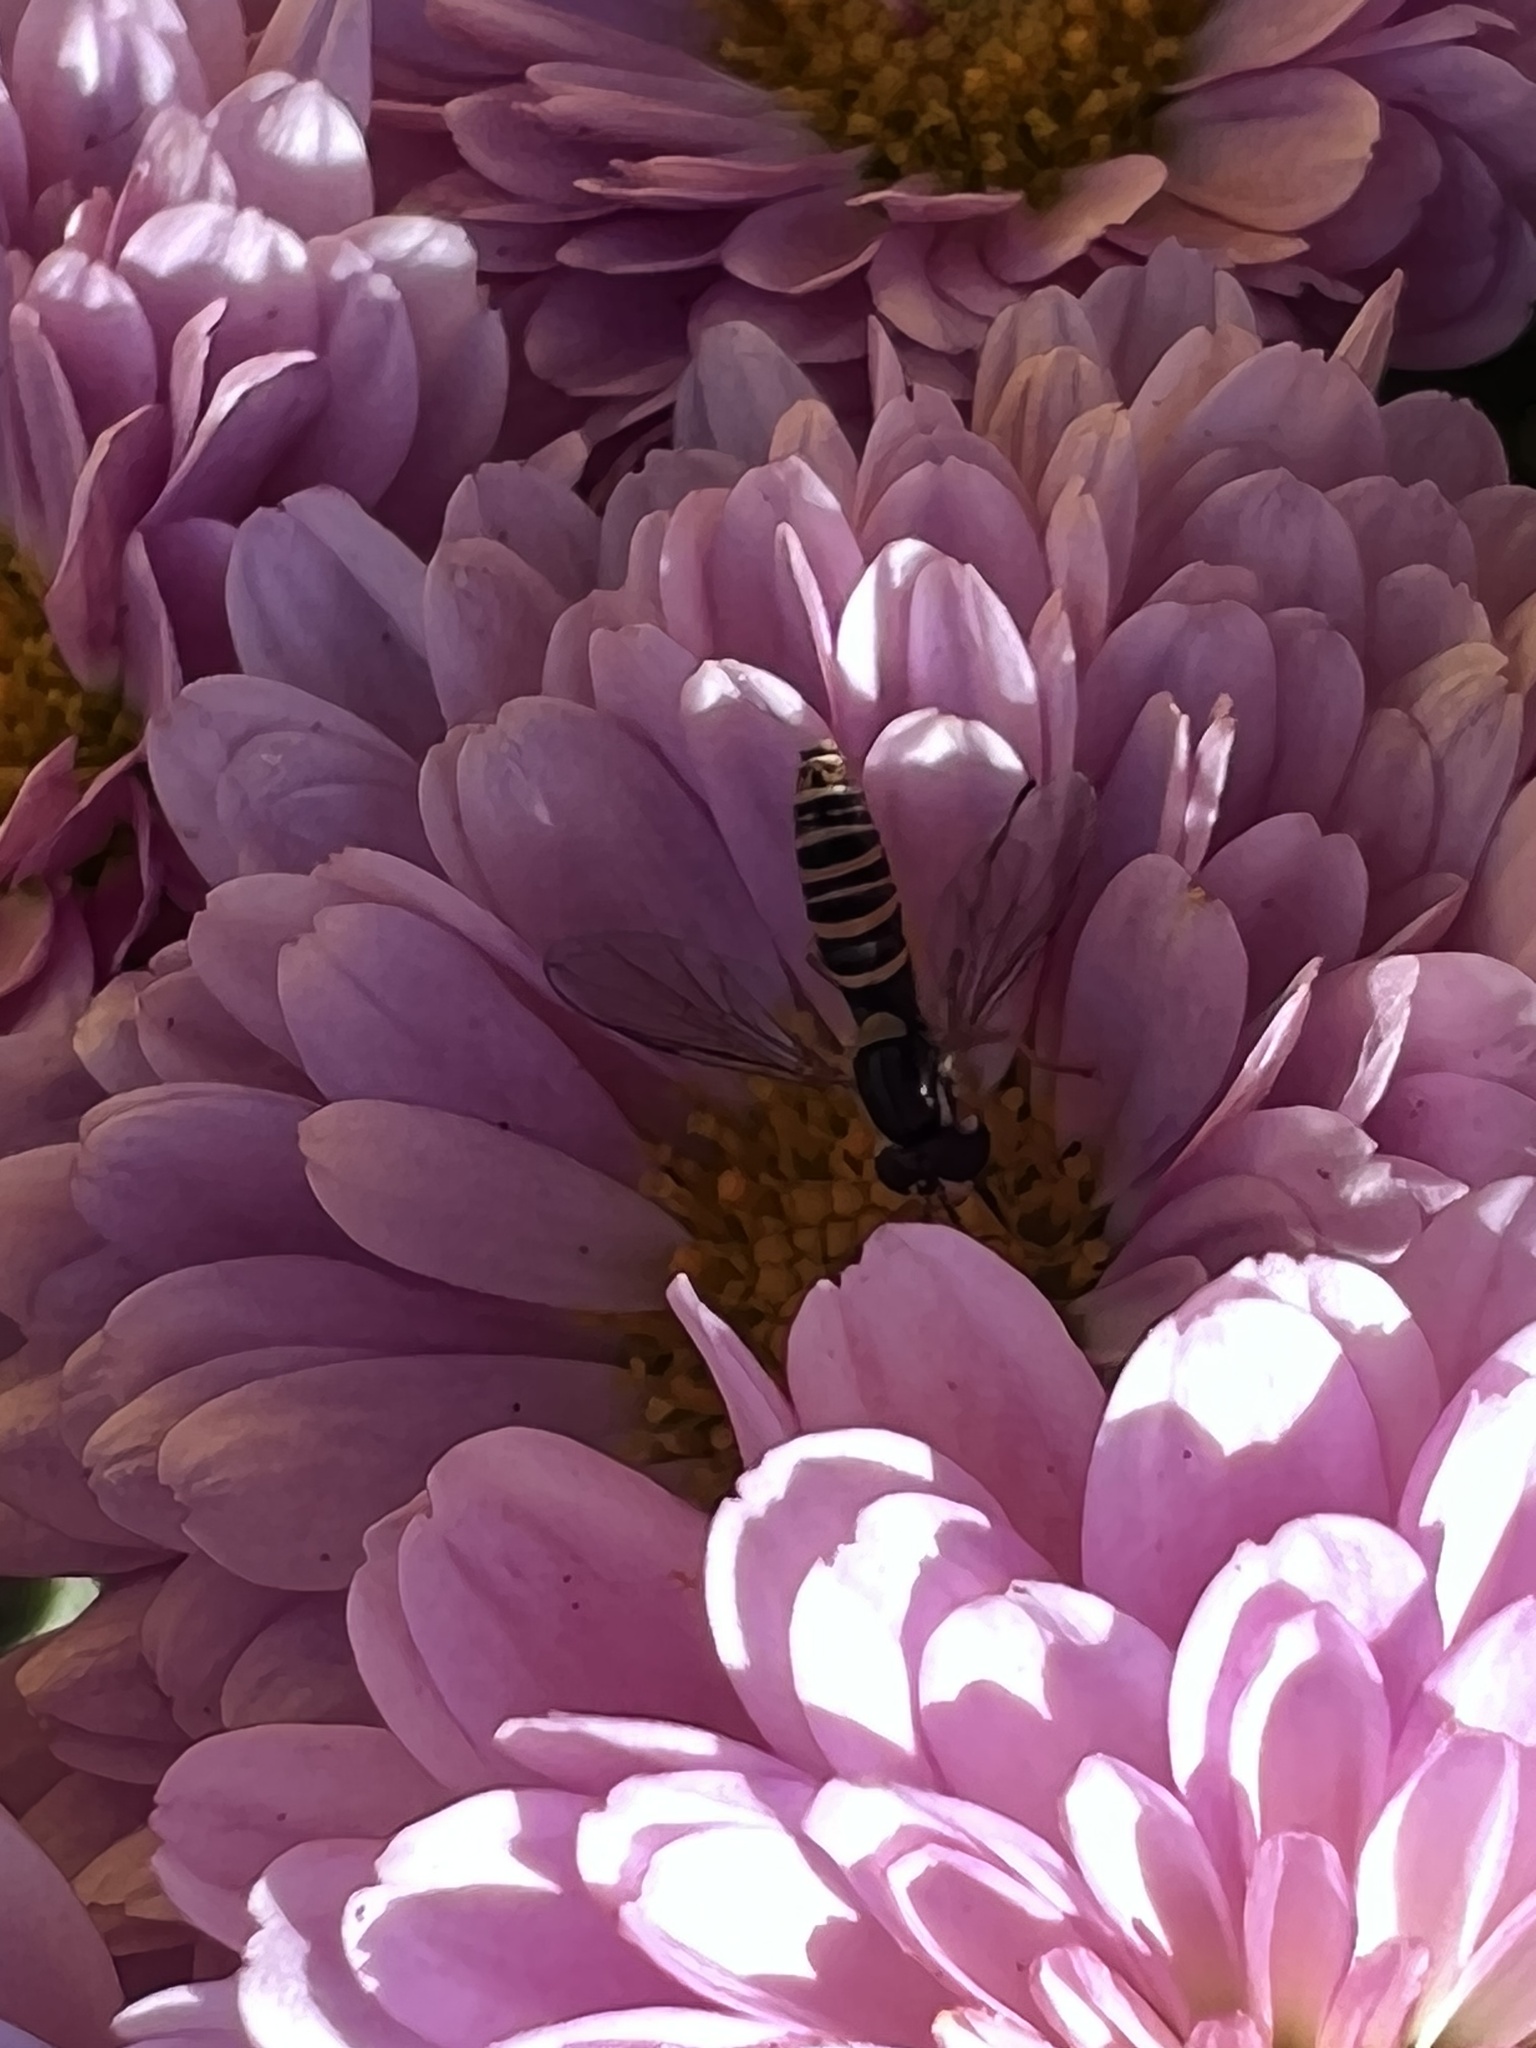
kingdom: Animalia
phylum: Arthropoda
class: Insecta
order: Diptera
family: Syrphidae
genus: Sphaerophoria
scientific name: Sphaerophoria contigua
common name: Tufted globetail
